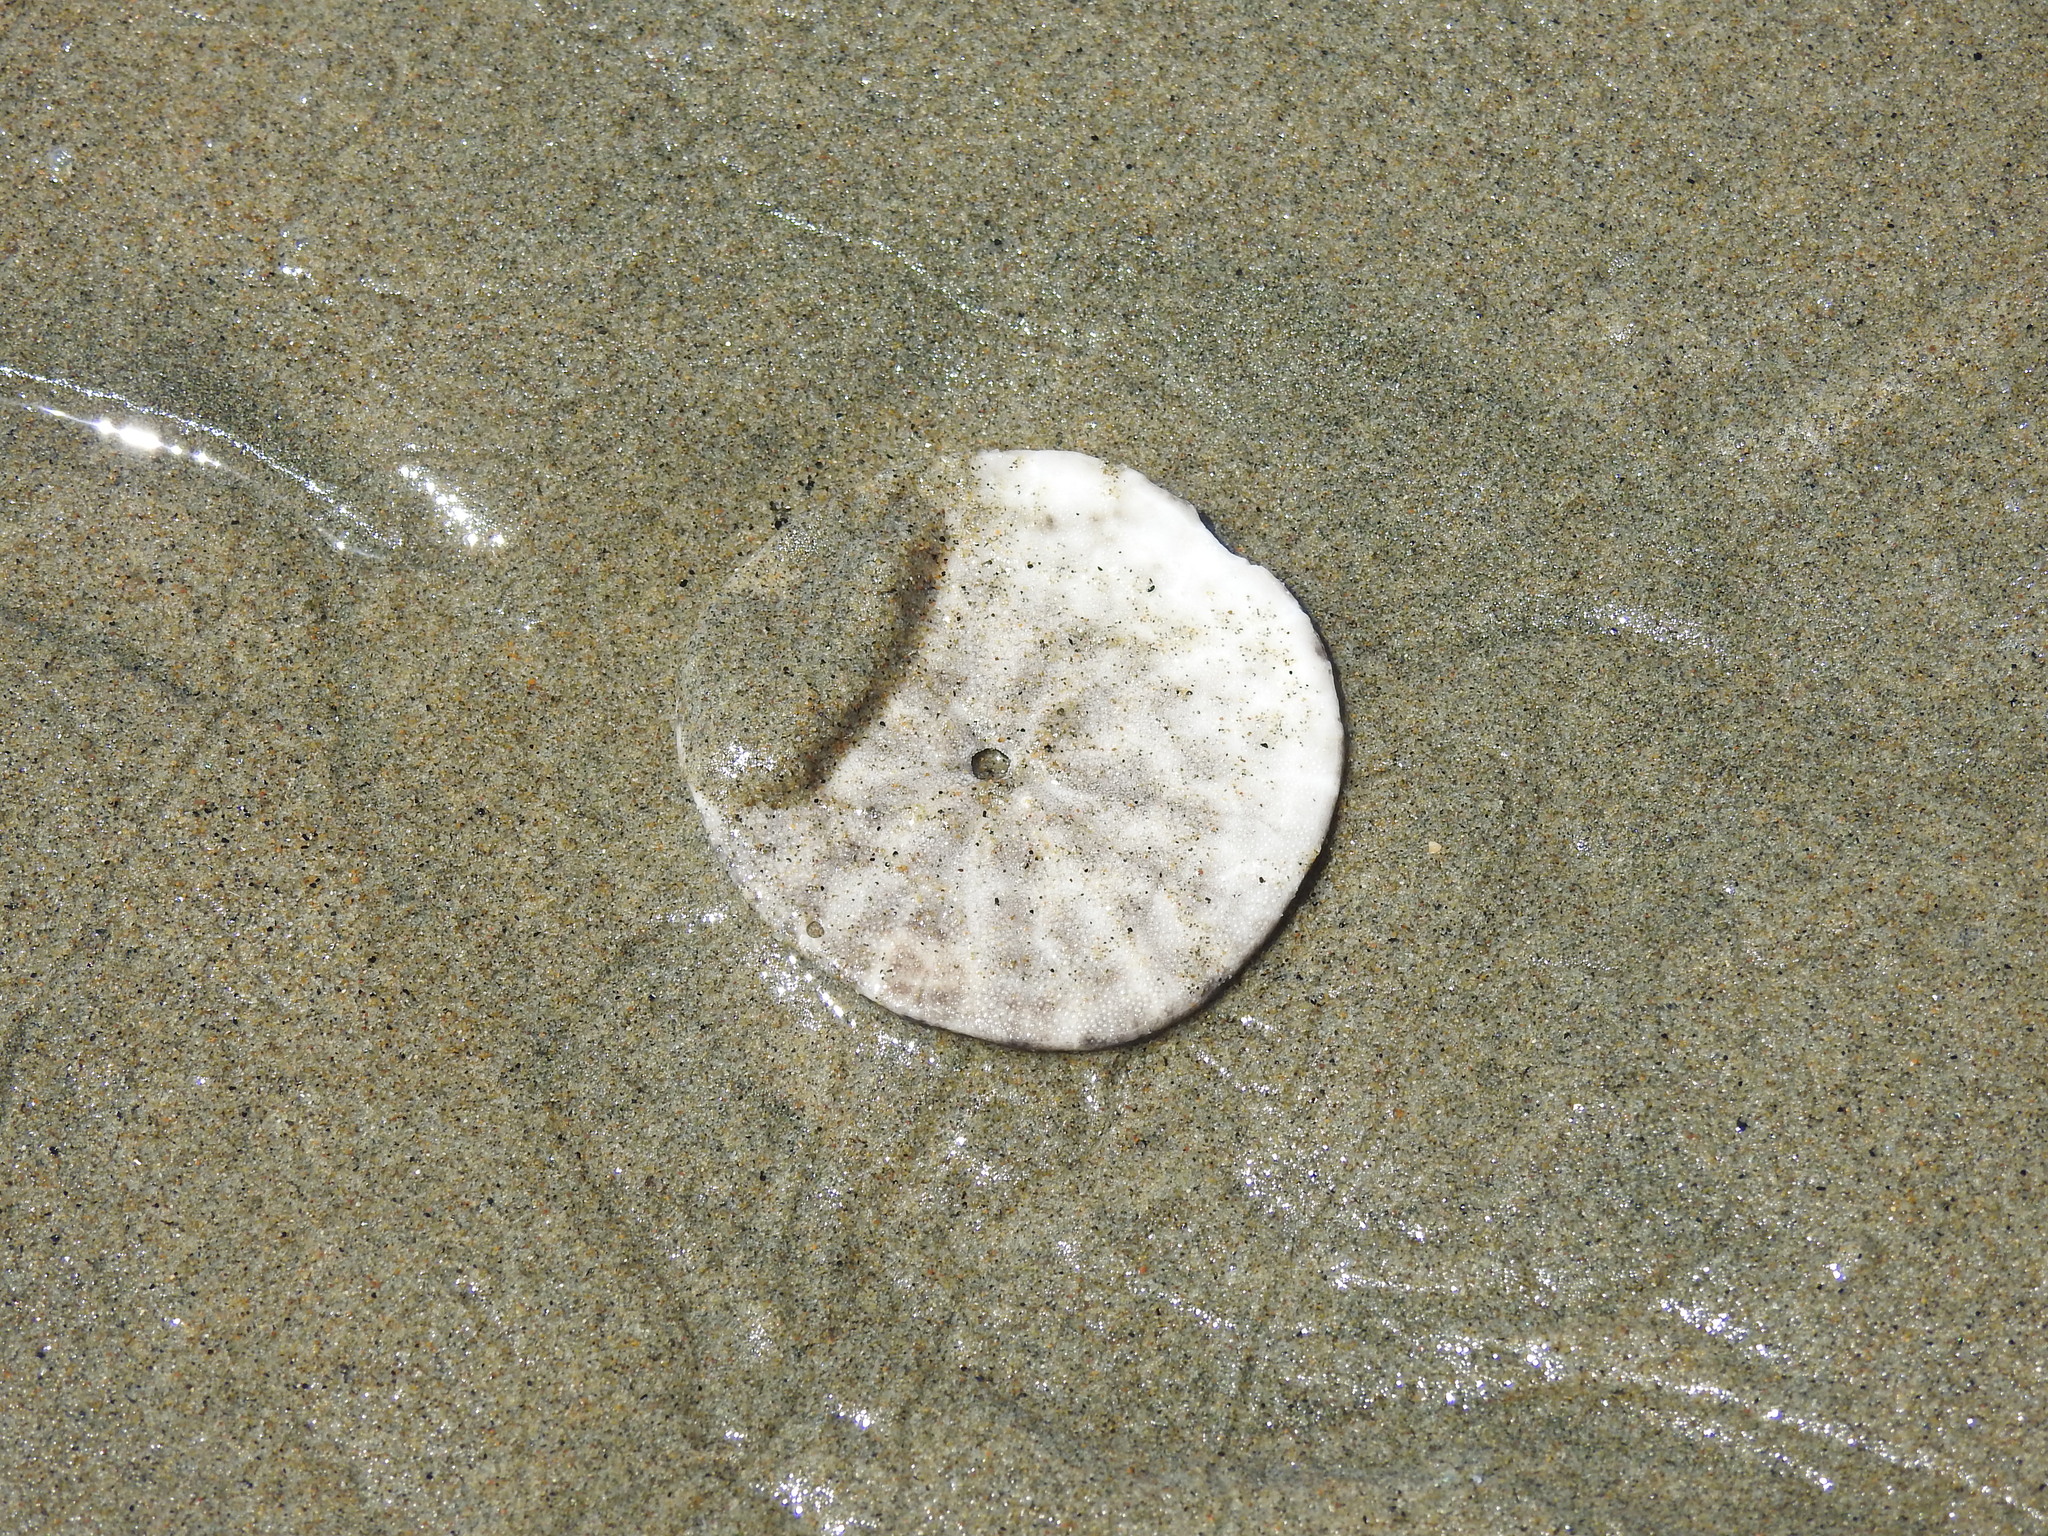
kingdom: Animalia
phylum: Echinodermata
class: Echinoidea
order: Echinolampadacea
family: Dendrasteridae
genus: Dendraster
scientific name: Dendraster excentricus
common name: Eccentric sand dollar sea urchin
